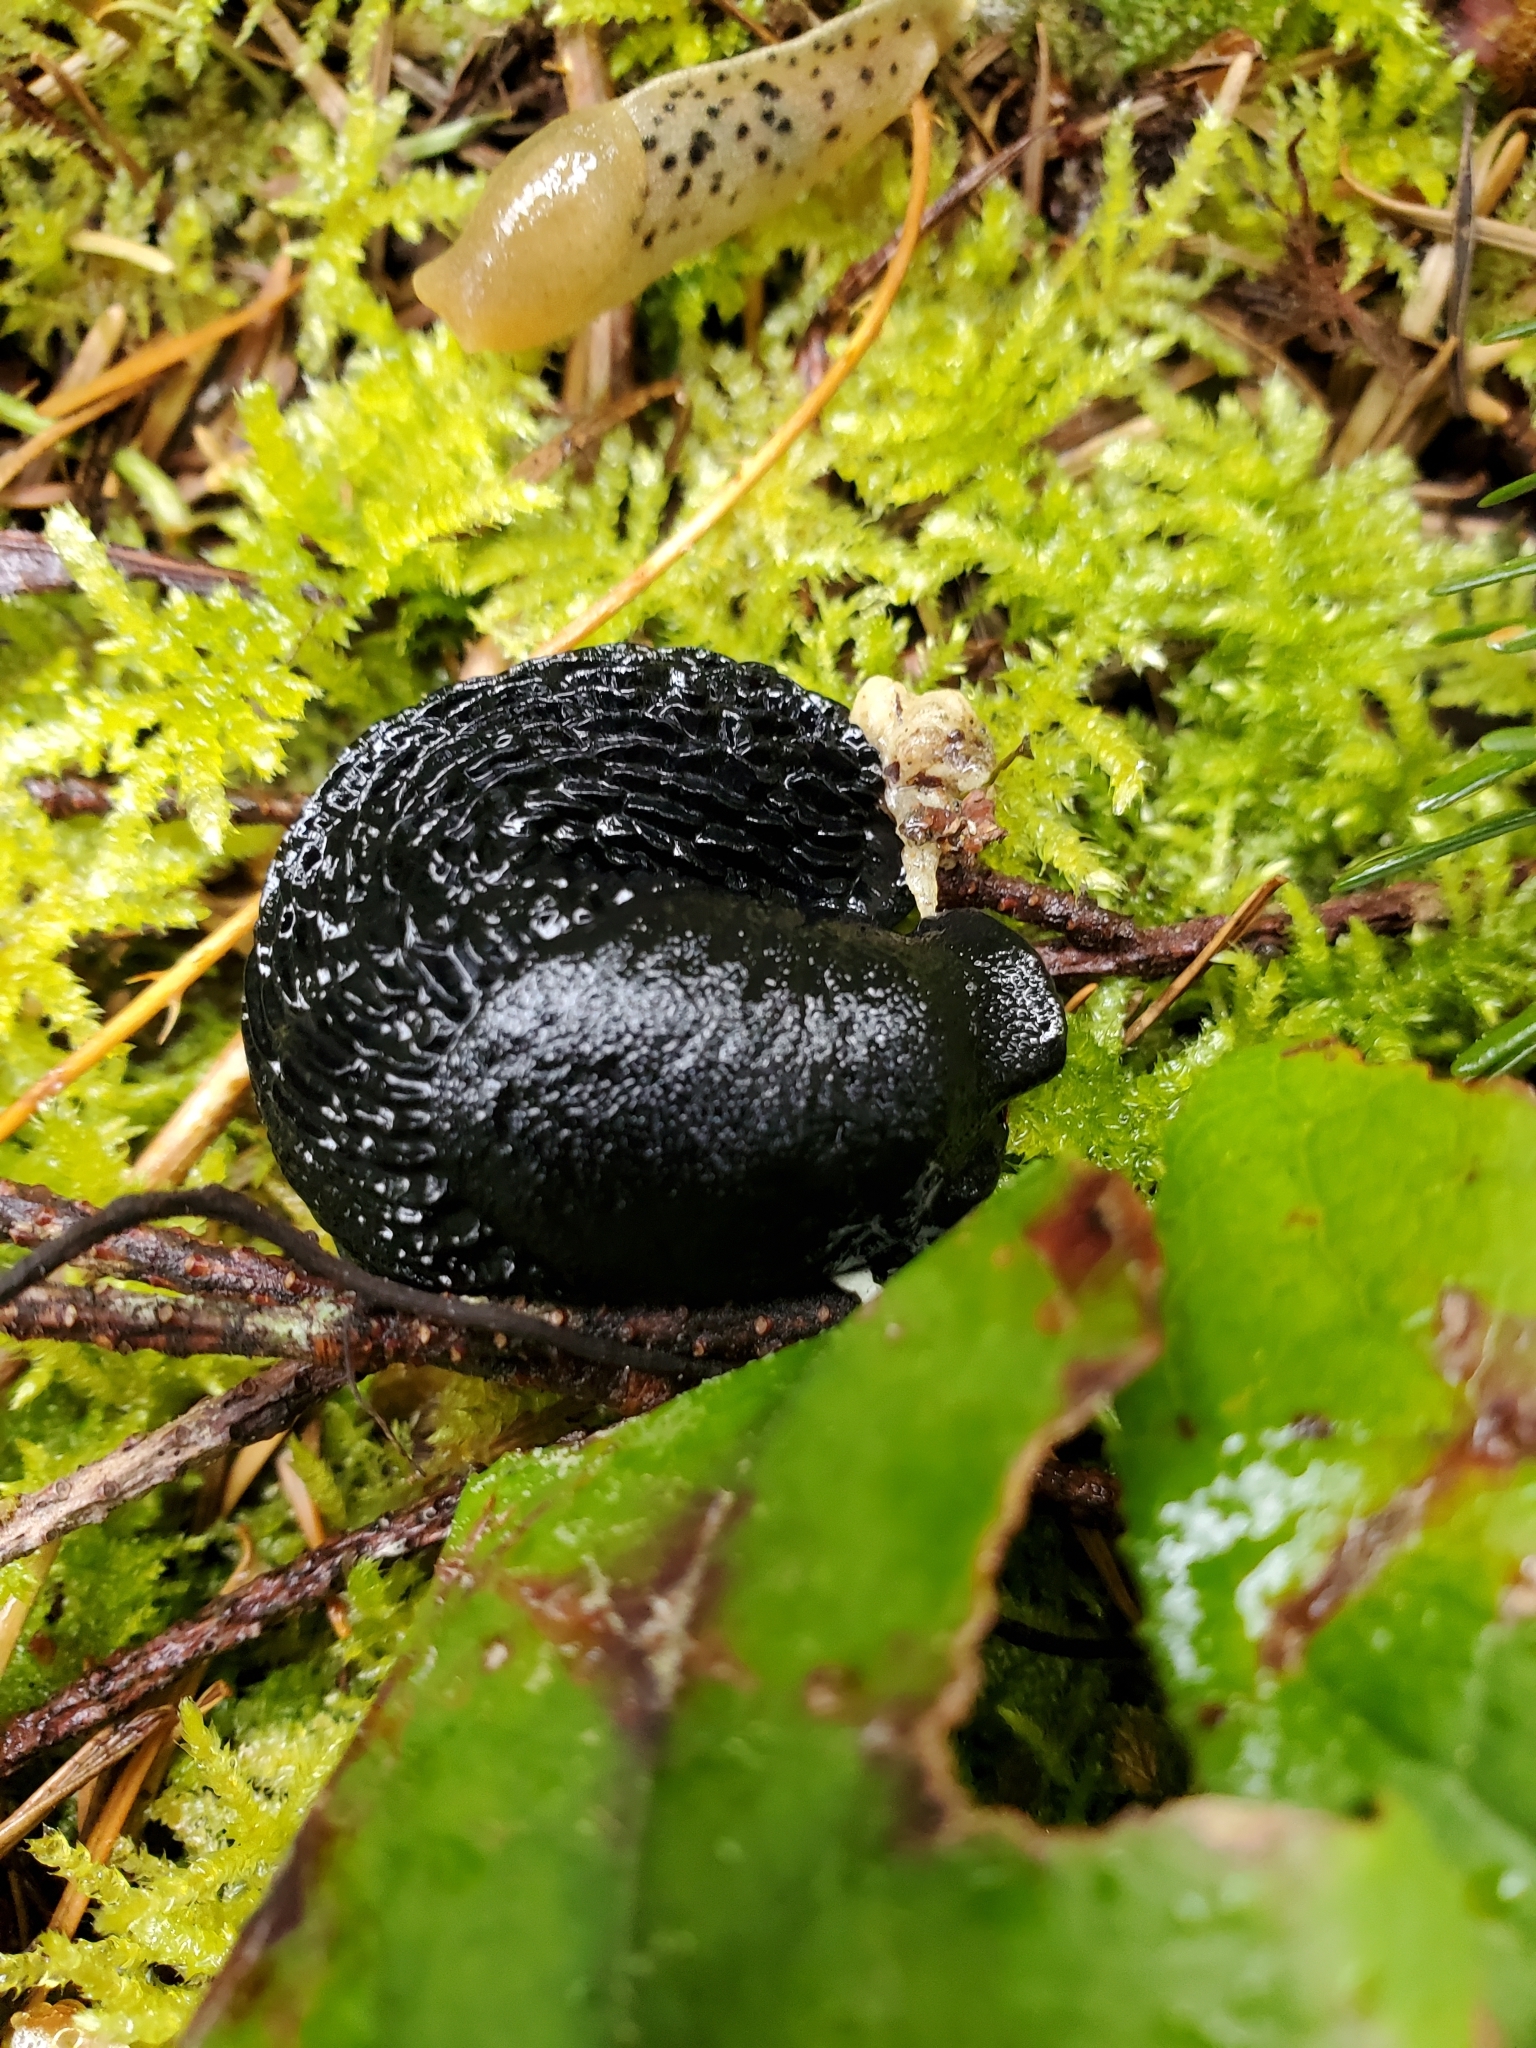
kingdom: Animalia
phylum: Mollusca
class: Gastropoda
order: Stylommatophora
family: Arionidae
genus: Arion
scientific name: Arion rufus
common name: Chocolate arion
